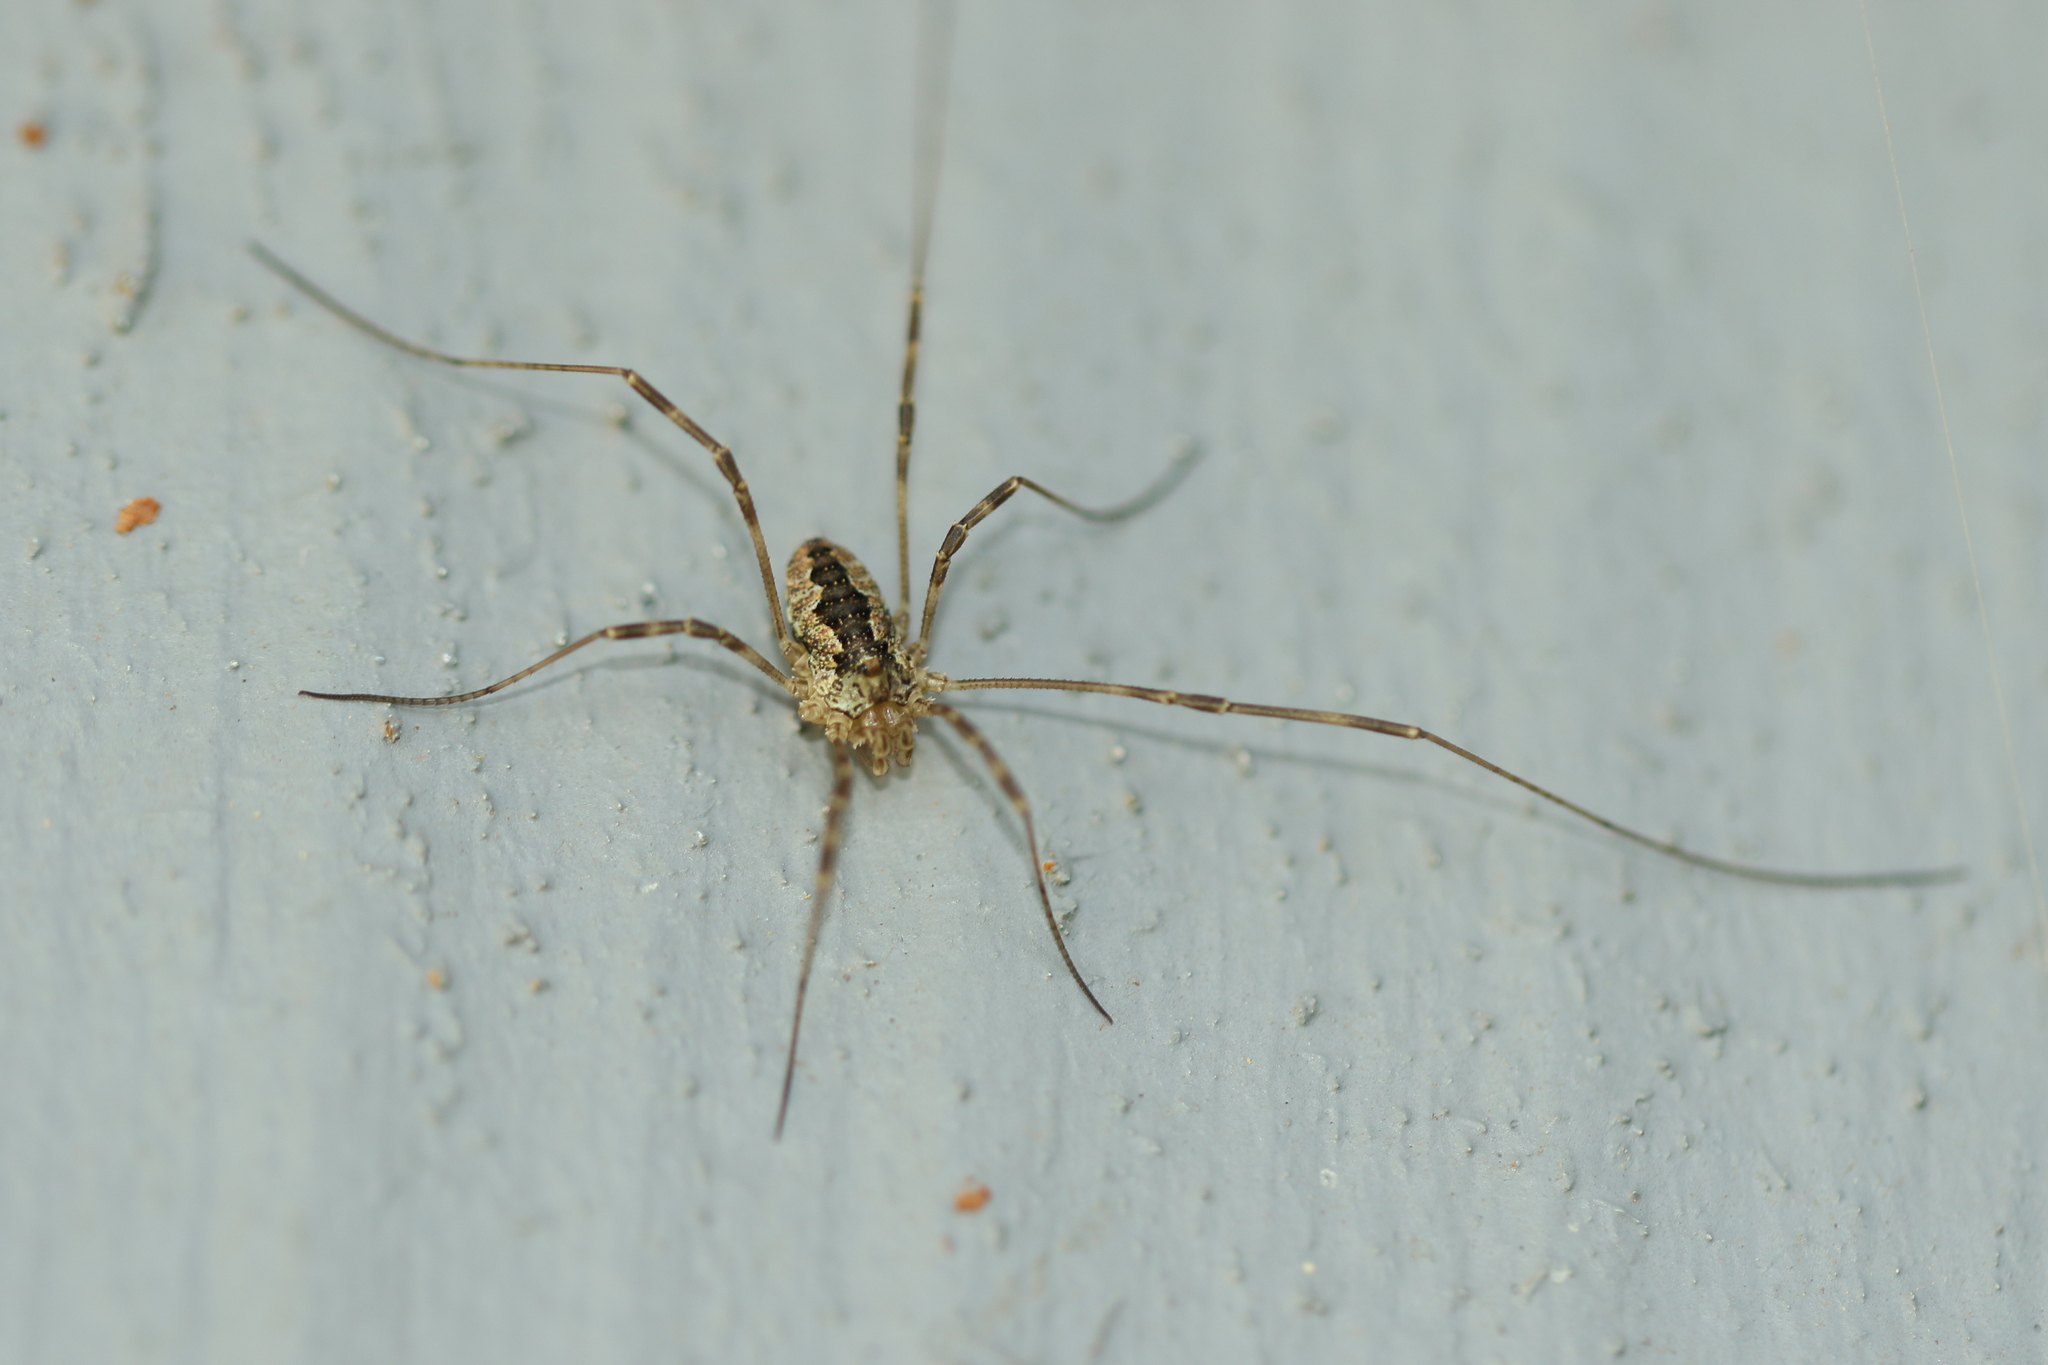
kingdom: Animalia
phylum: Arthropoda
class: Arachnida
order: Opiliones
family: Phalangiidae
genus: Odiellus
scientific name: Odiellus pictus
